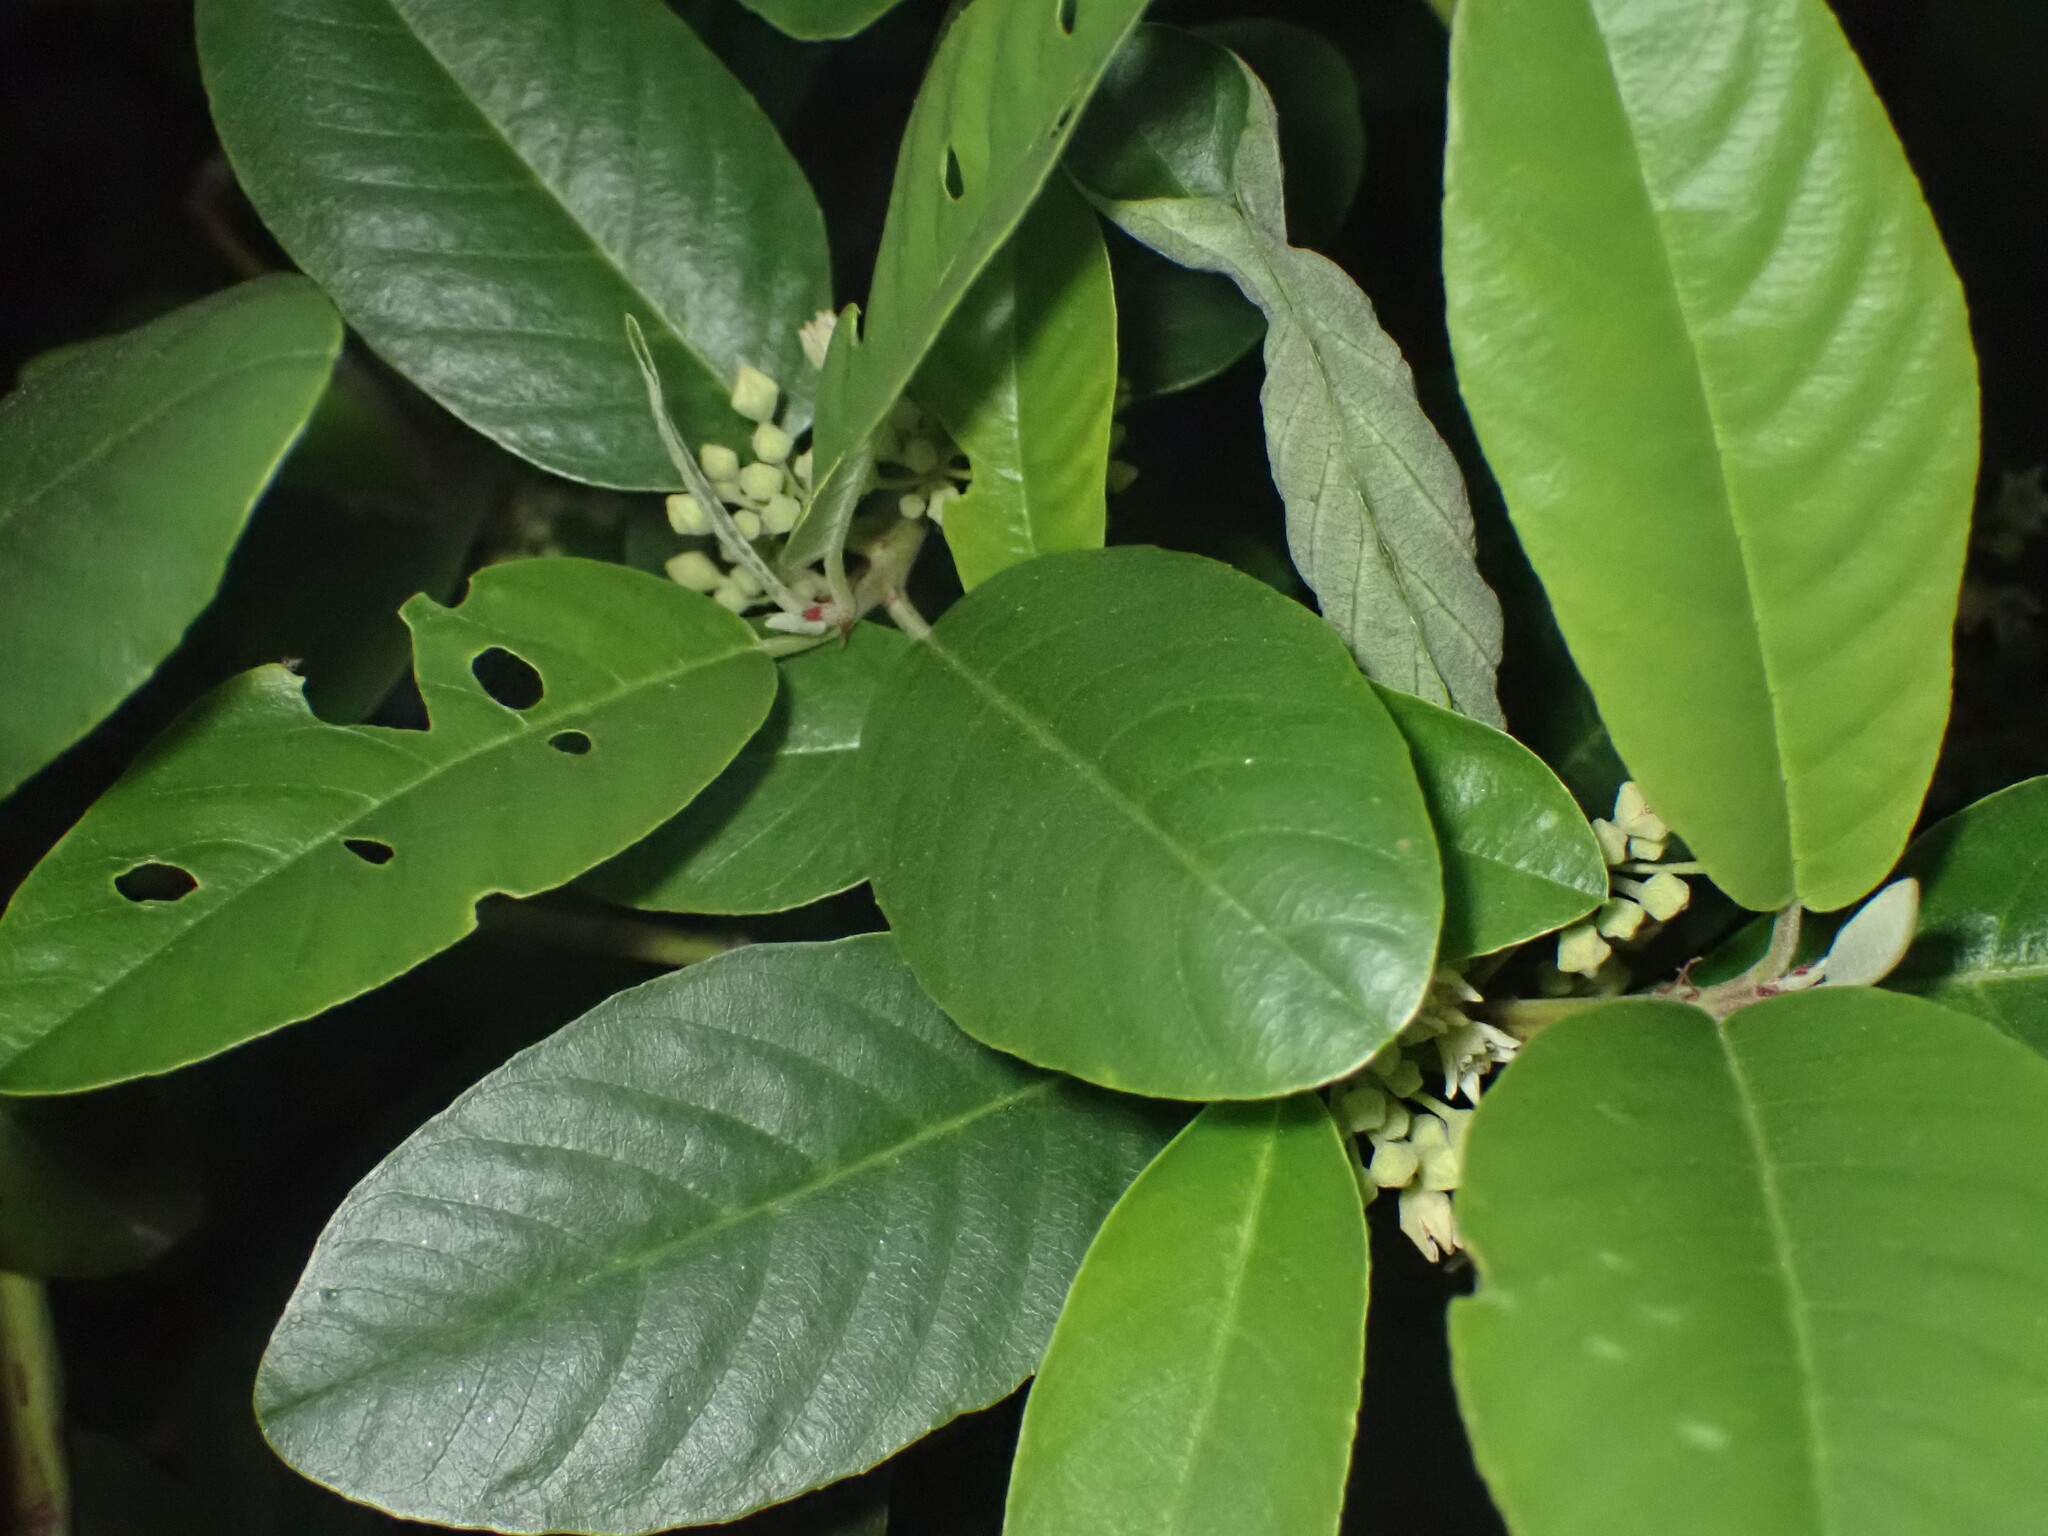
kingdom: Plantae
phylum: Tracheophyta
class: Magnoliopsida
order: Rosales
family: Rhamnaceae
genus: Frangula
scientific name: Frangula californica
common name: California buckthorn
